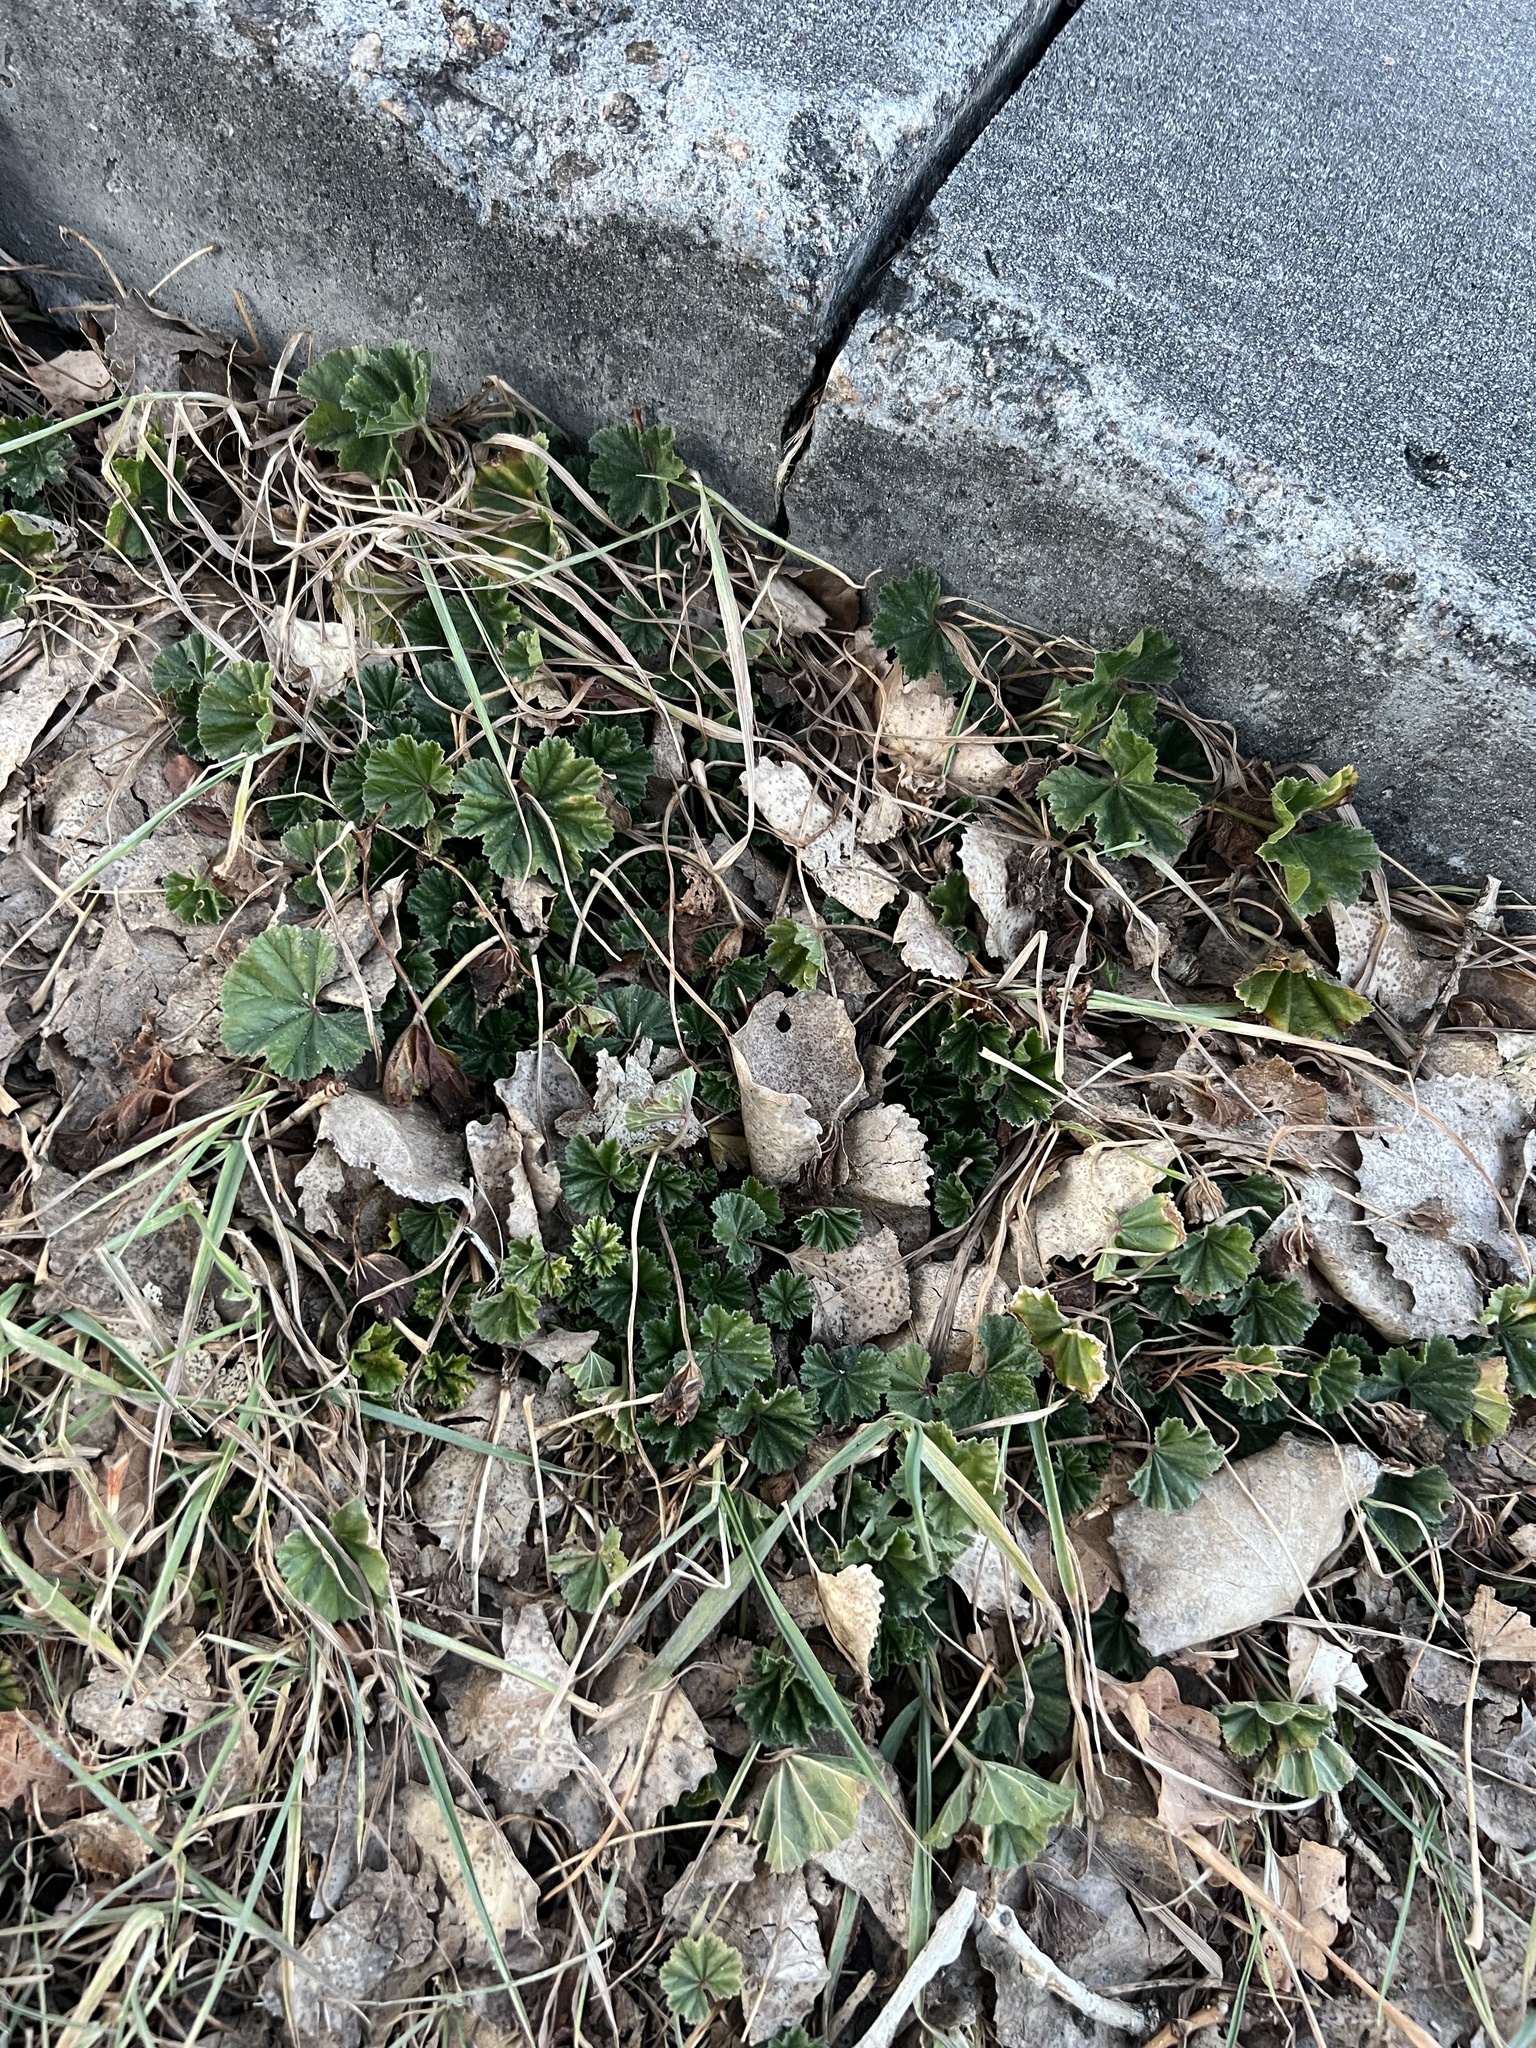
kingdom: Plantae
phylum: Tracheophyta
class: Magnoliopsida
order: Malvales
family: Malvaceae
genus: Malva
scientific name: Malva neglecta
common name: Common mallow
